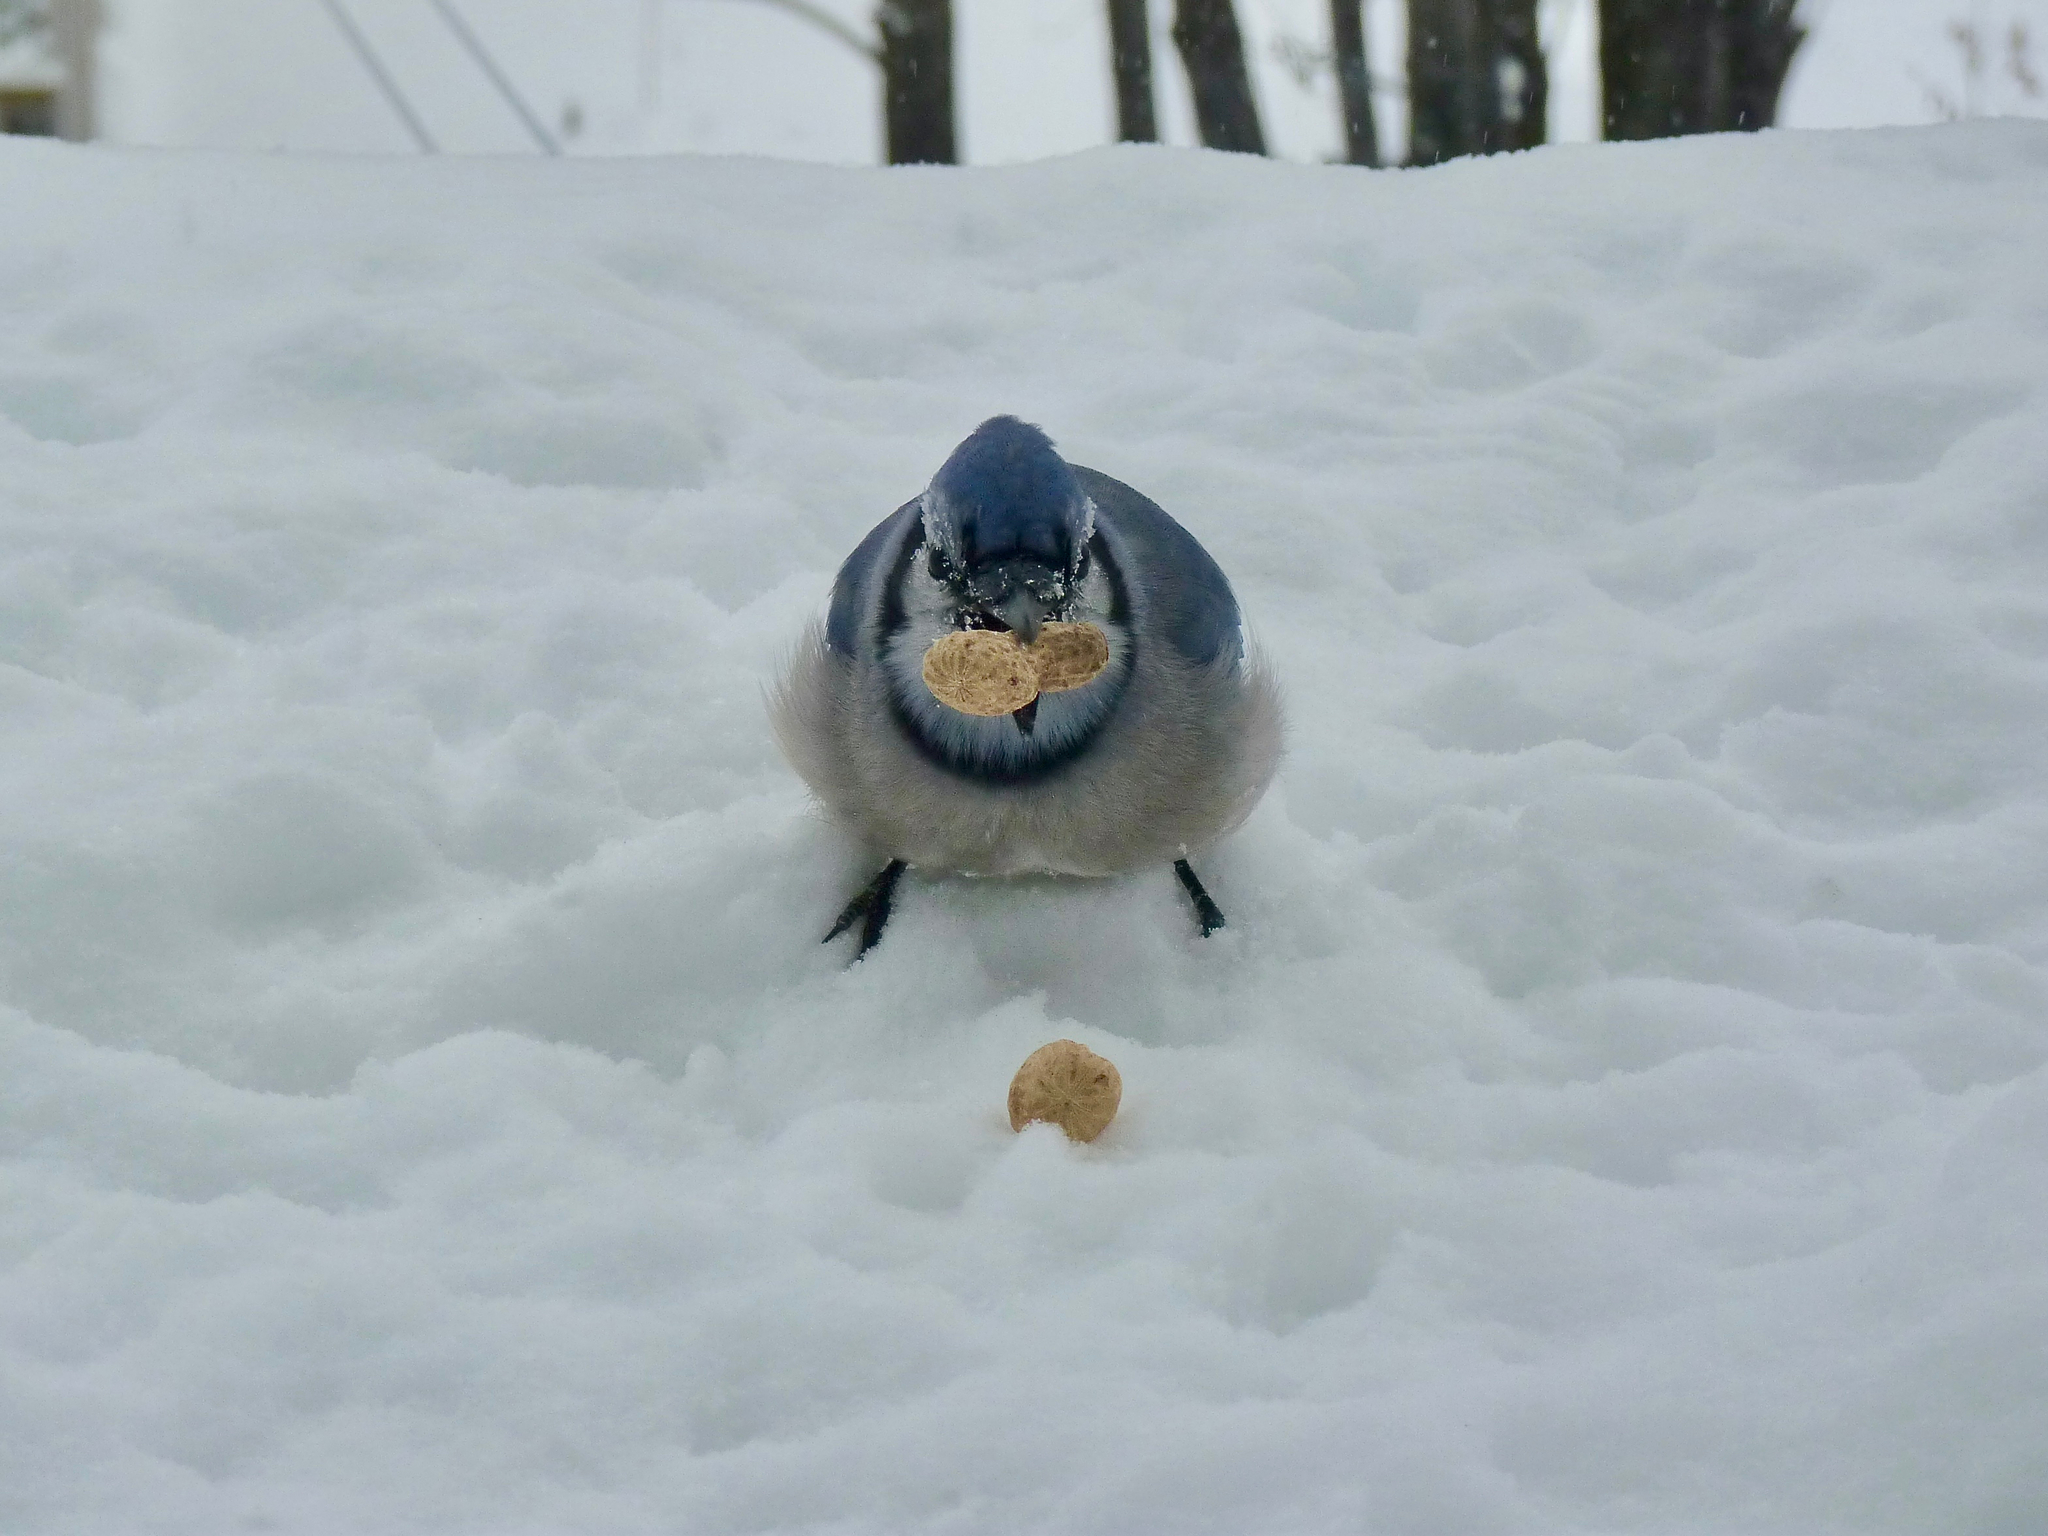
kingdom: Animalia
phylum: Chordata
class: Aves
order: Passeriformes
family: Corvidae
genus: Cyanocitta
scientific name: Cyanocitta cristata
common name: Blue jay
